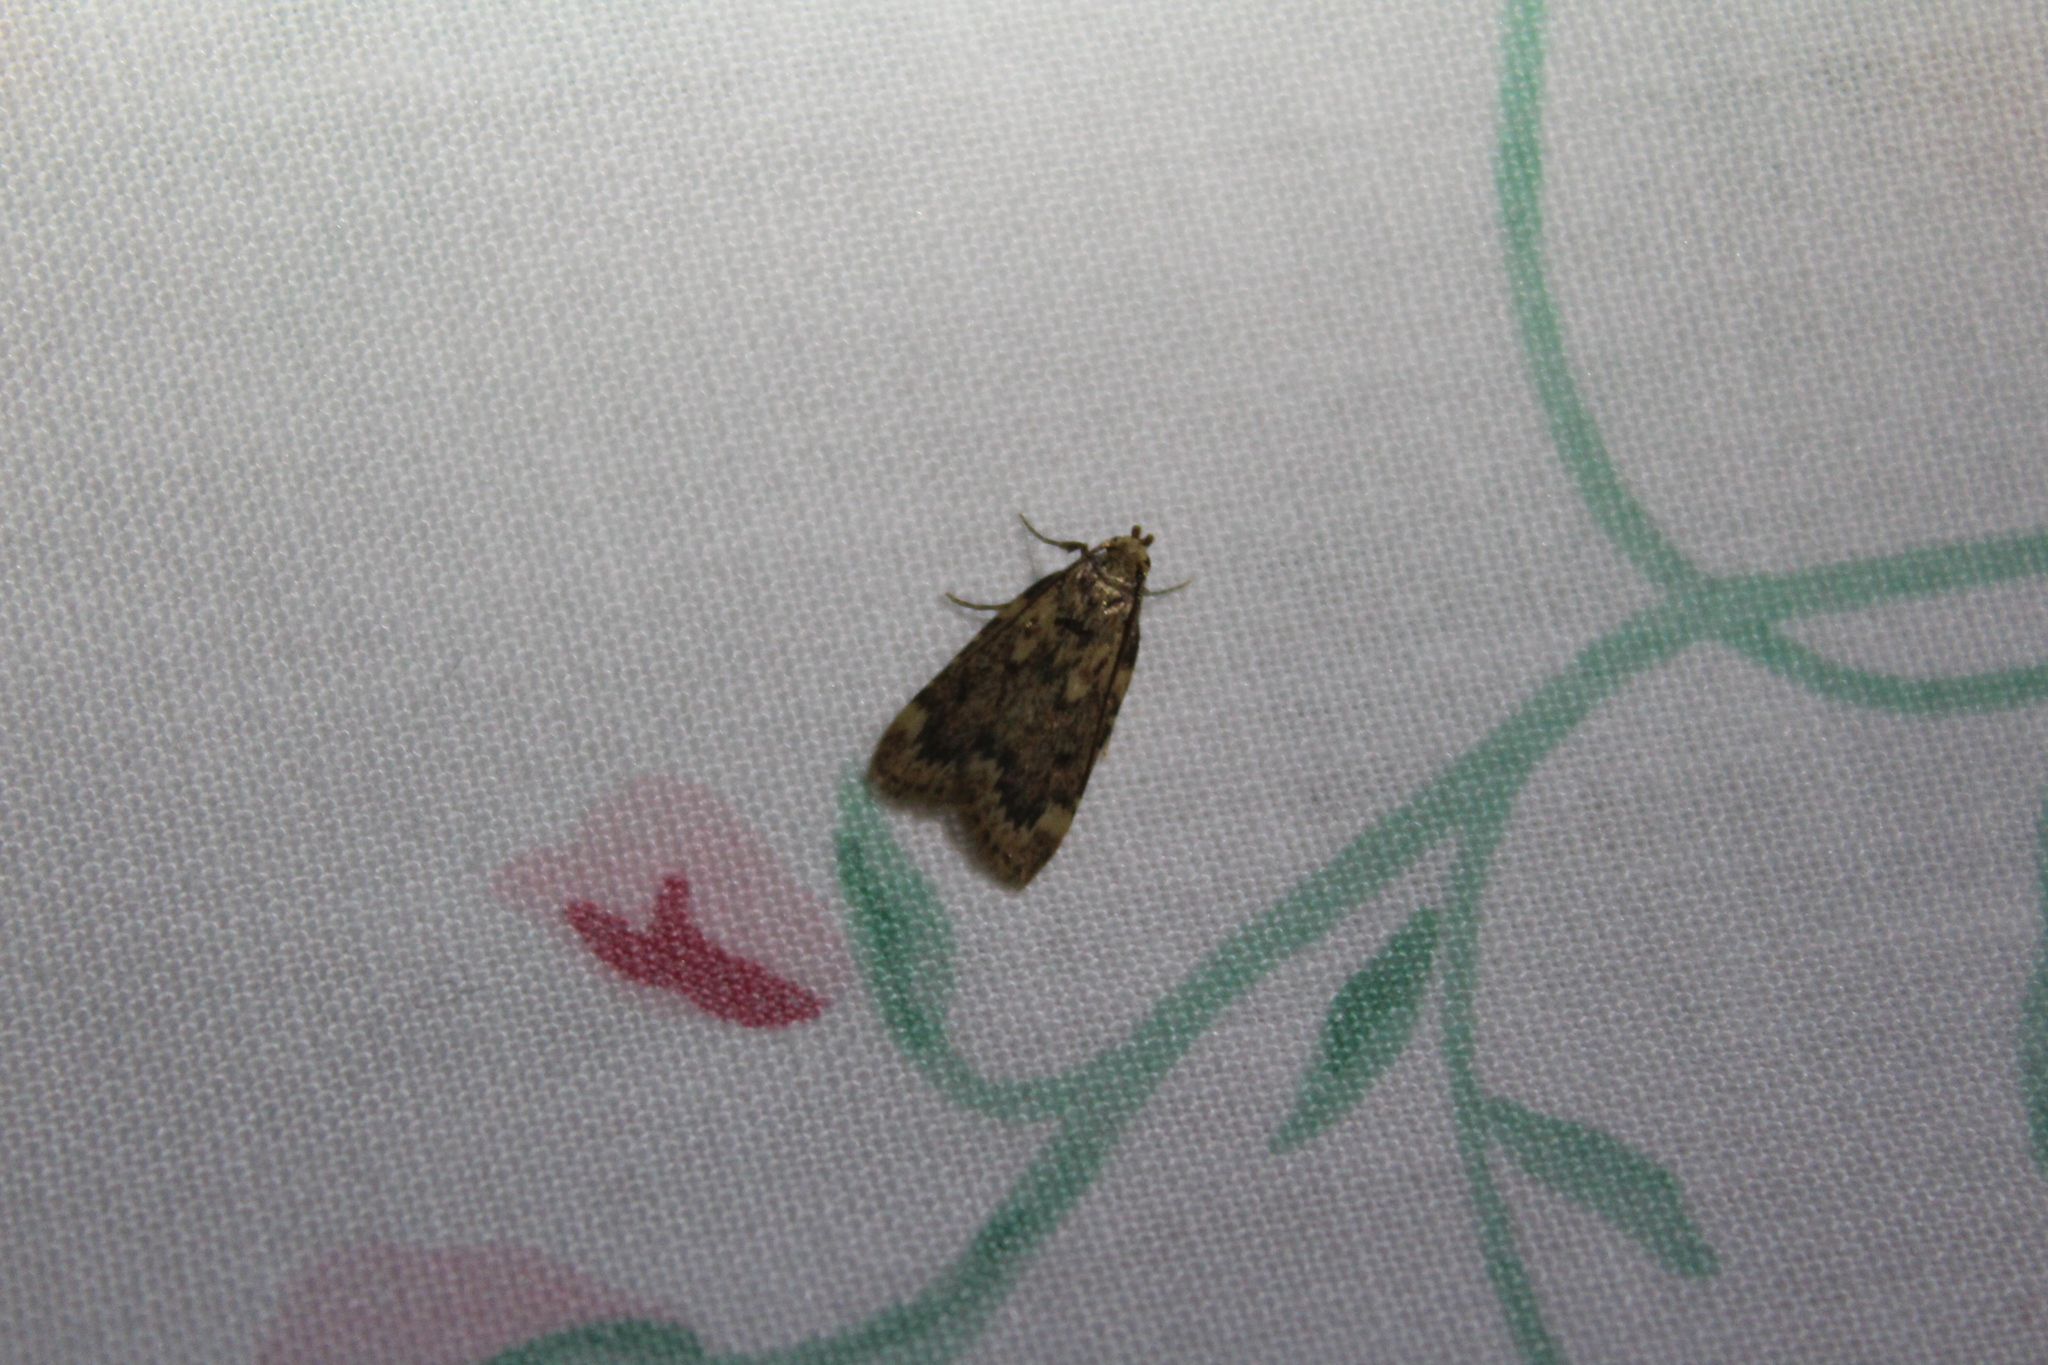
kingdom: Animalia
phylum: Arthropoda
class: Insecta
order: Lepidoptera
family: Pyralidae
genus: Aglossa
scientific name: Aglossa cuprina
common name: Grease moth
